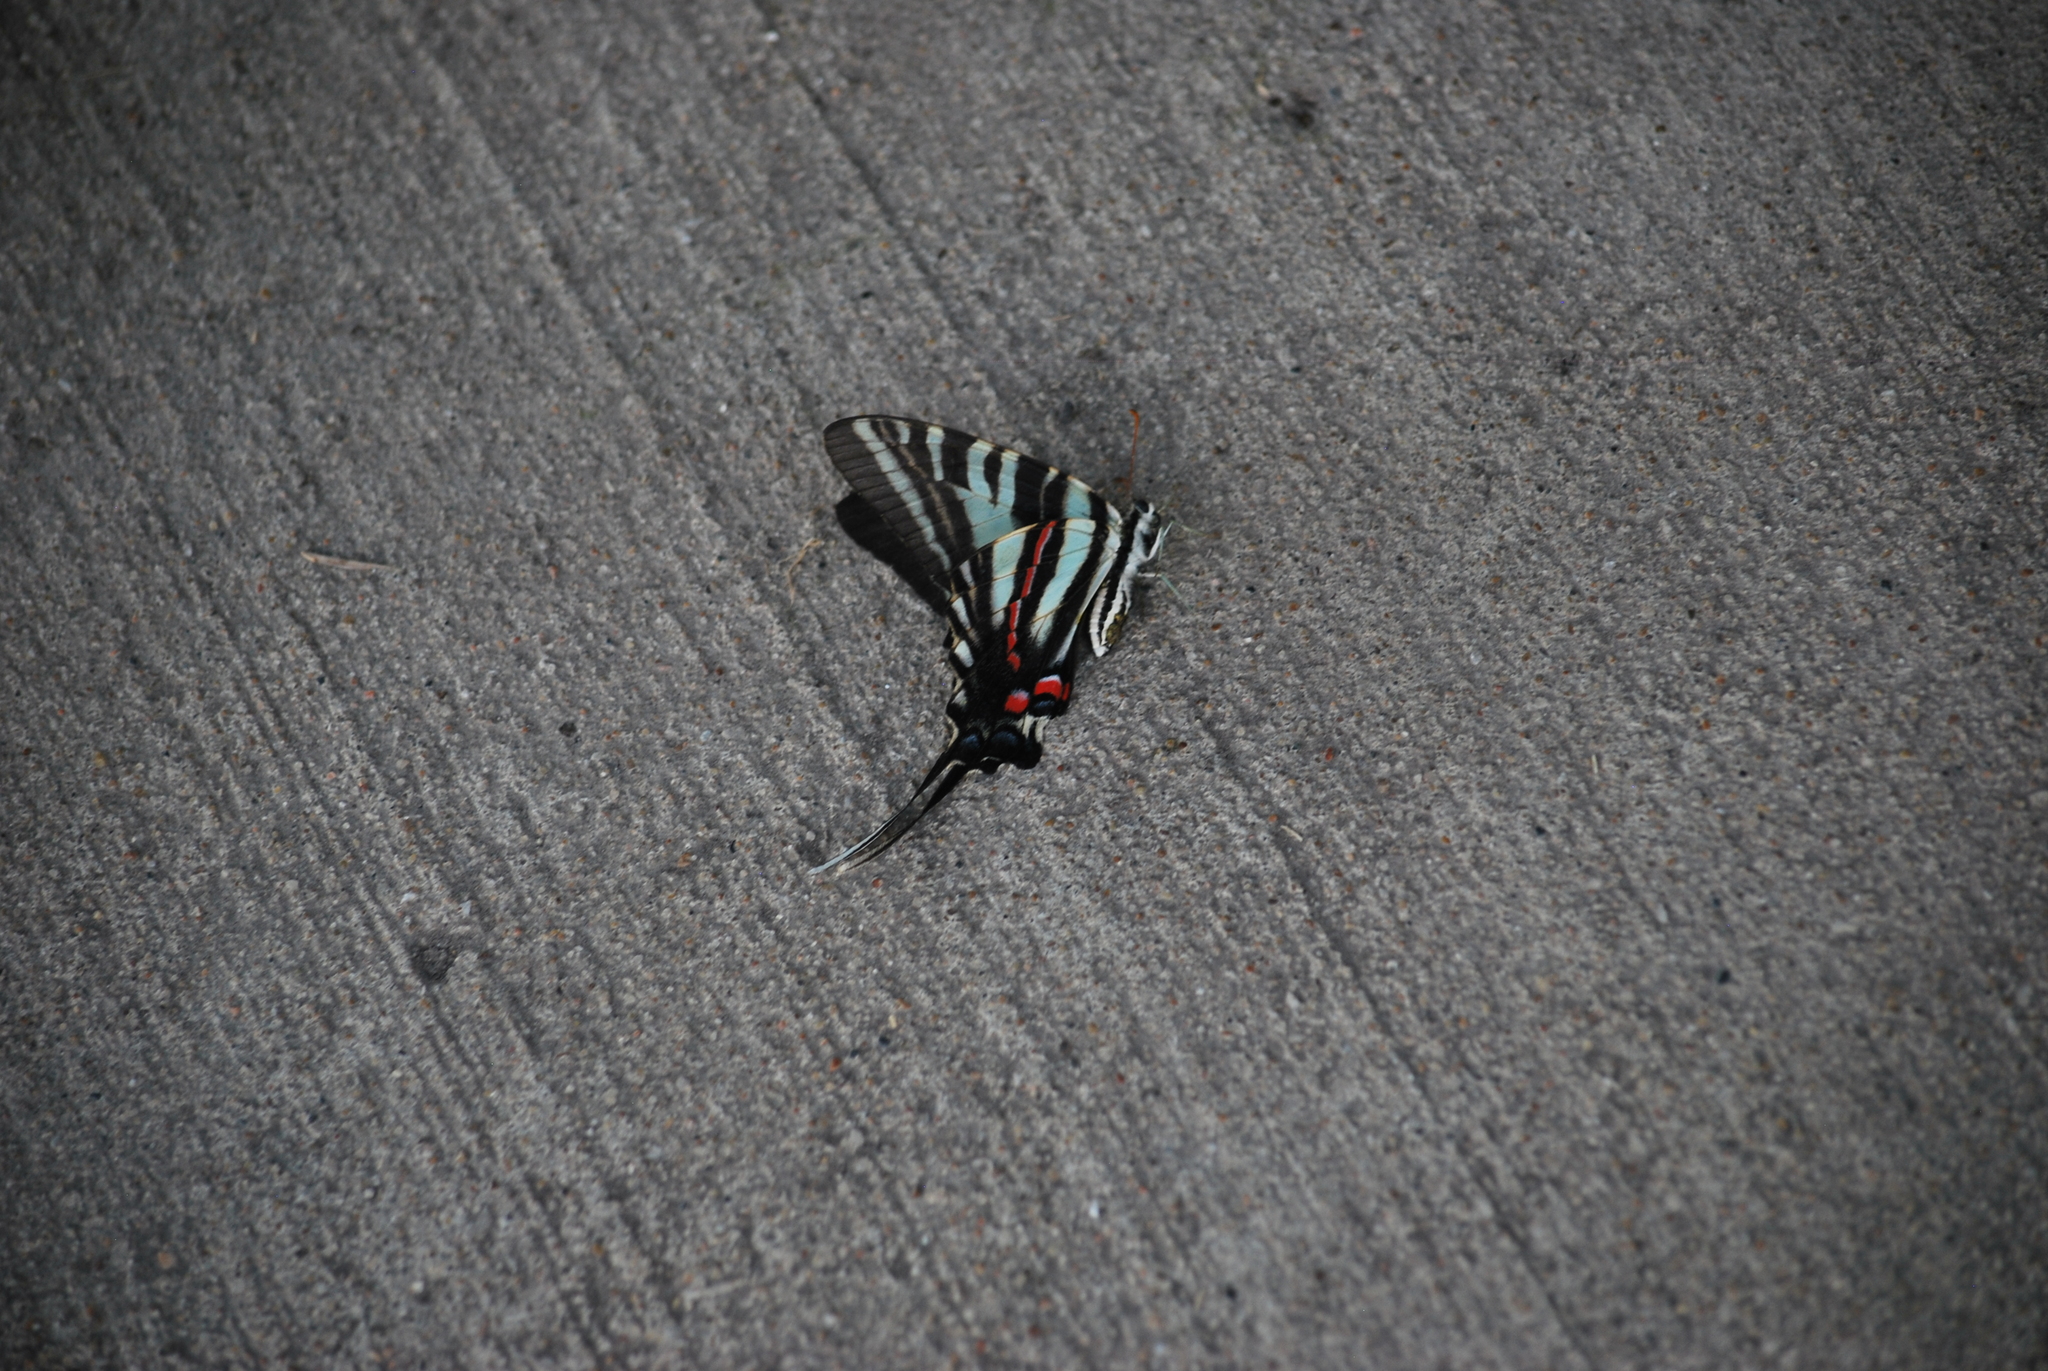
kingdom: Animalia
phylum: Arthropoda
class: Insecta
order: Lepidoptera
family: Papilionidae
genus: Protographium
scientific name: Protographium marcellus
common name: Zebra swallowtail
